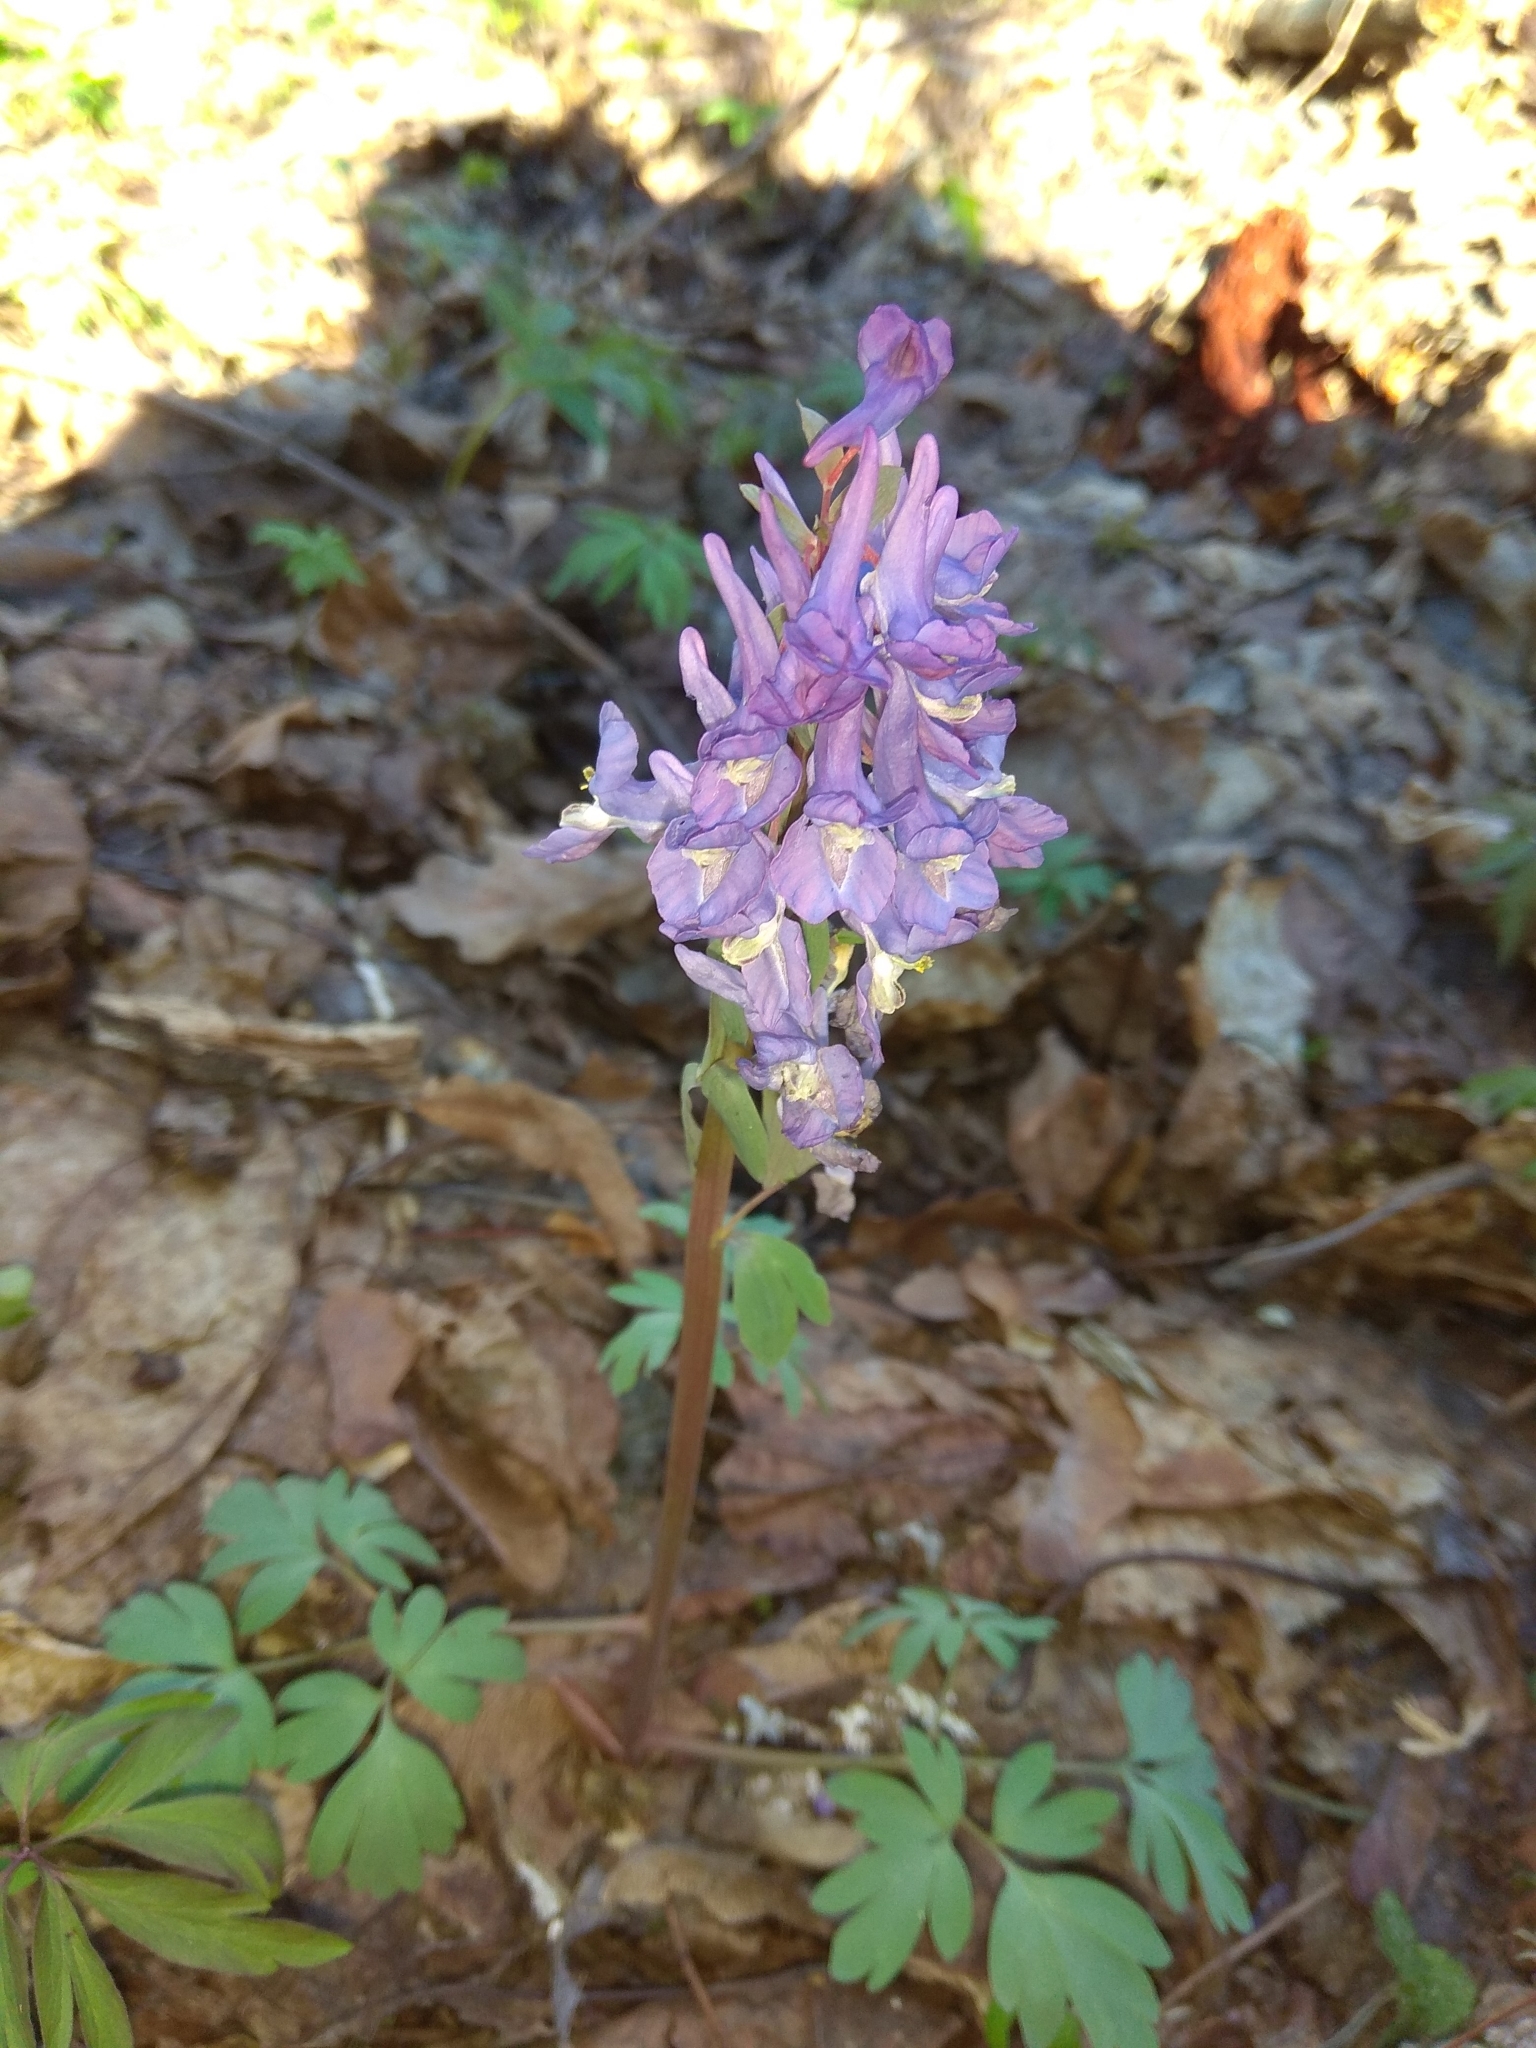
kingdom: Plantae
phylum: Tracheophyta
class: Magnoliopsida
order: Ranunculales
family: Papaveraceae
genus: Corydalis
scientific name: Corydalis solida
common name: Bird-in-a-bush
